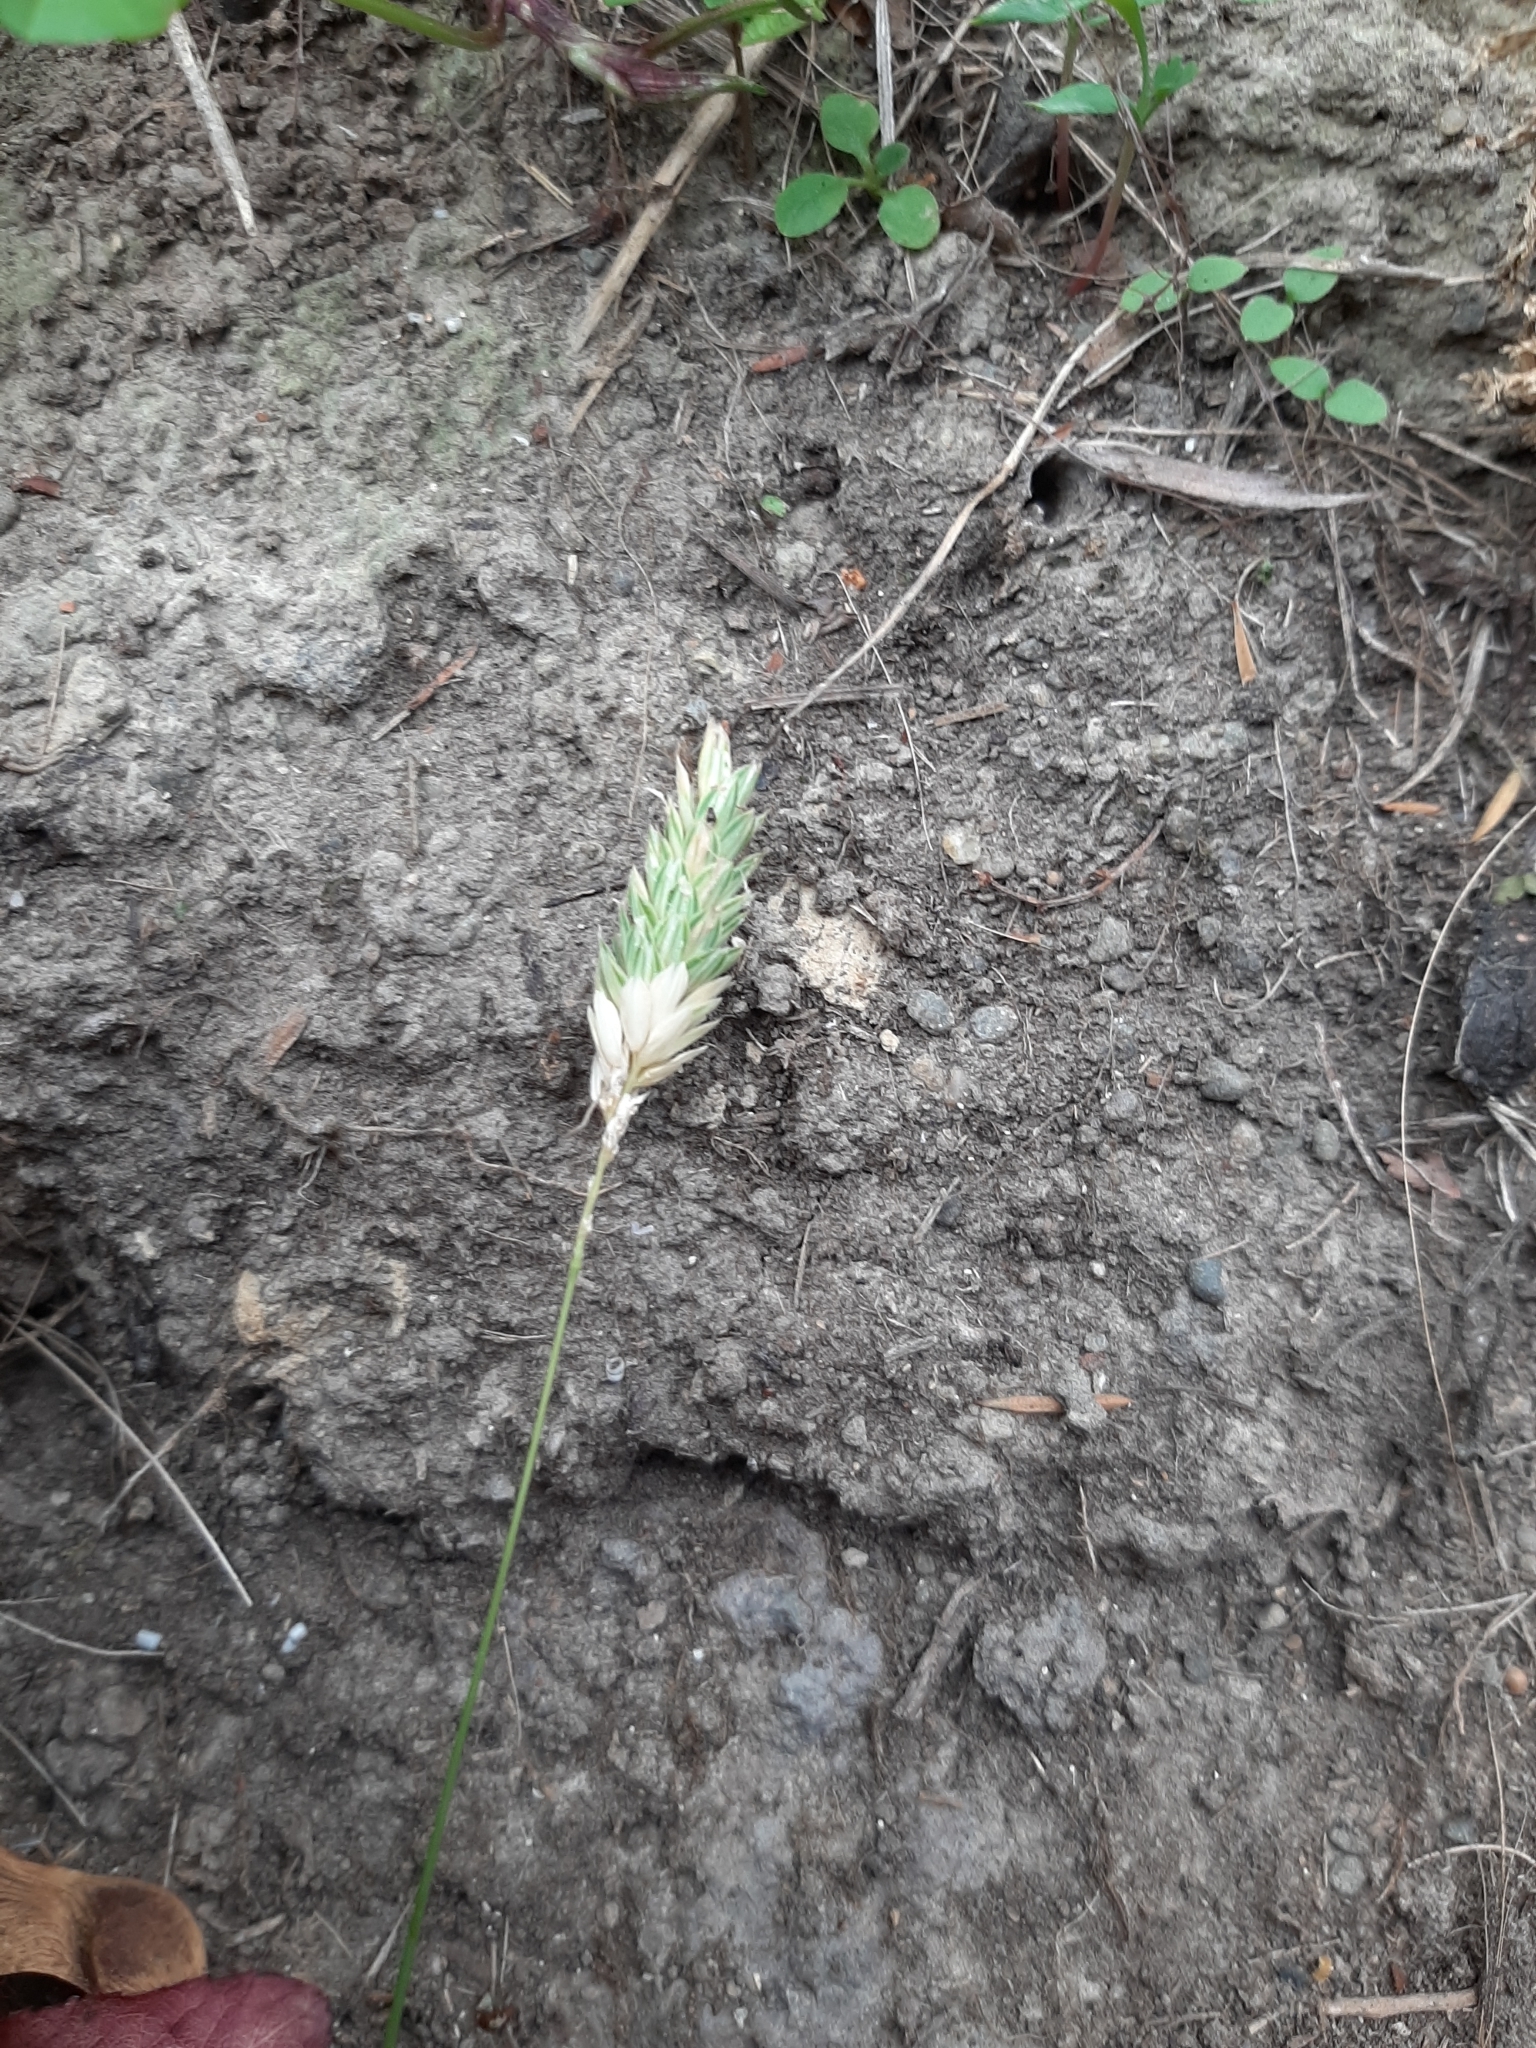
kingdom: Plantae
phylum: Tracheophyta
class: Liliopsida
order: Poales
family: Poaceae
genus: Phalaris
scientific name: Phalaris canariensis
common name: Annual canarygrass
